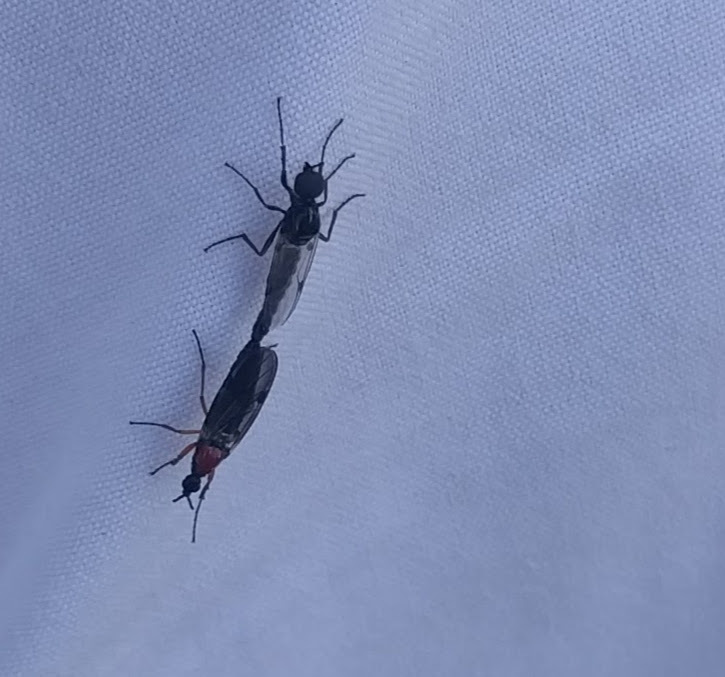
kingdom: Animalia
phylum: Arthropoda
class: Insecta
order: Diptera
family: Bibionidae
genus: Dilophus
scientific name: Dilophus tibialis
